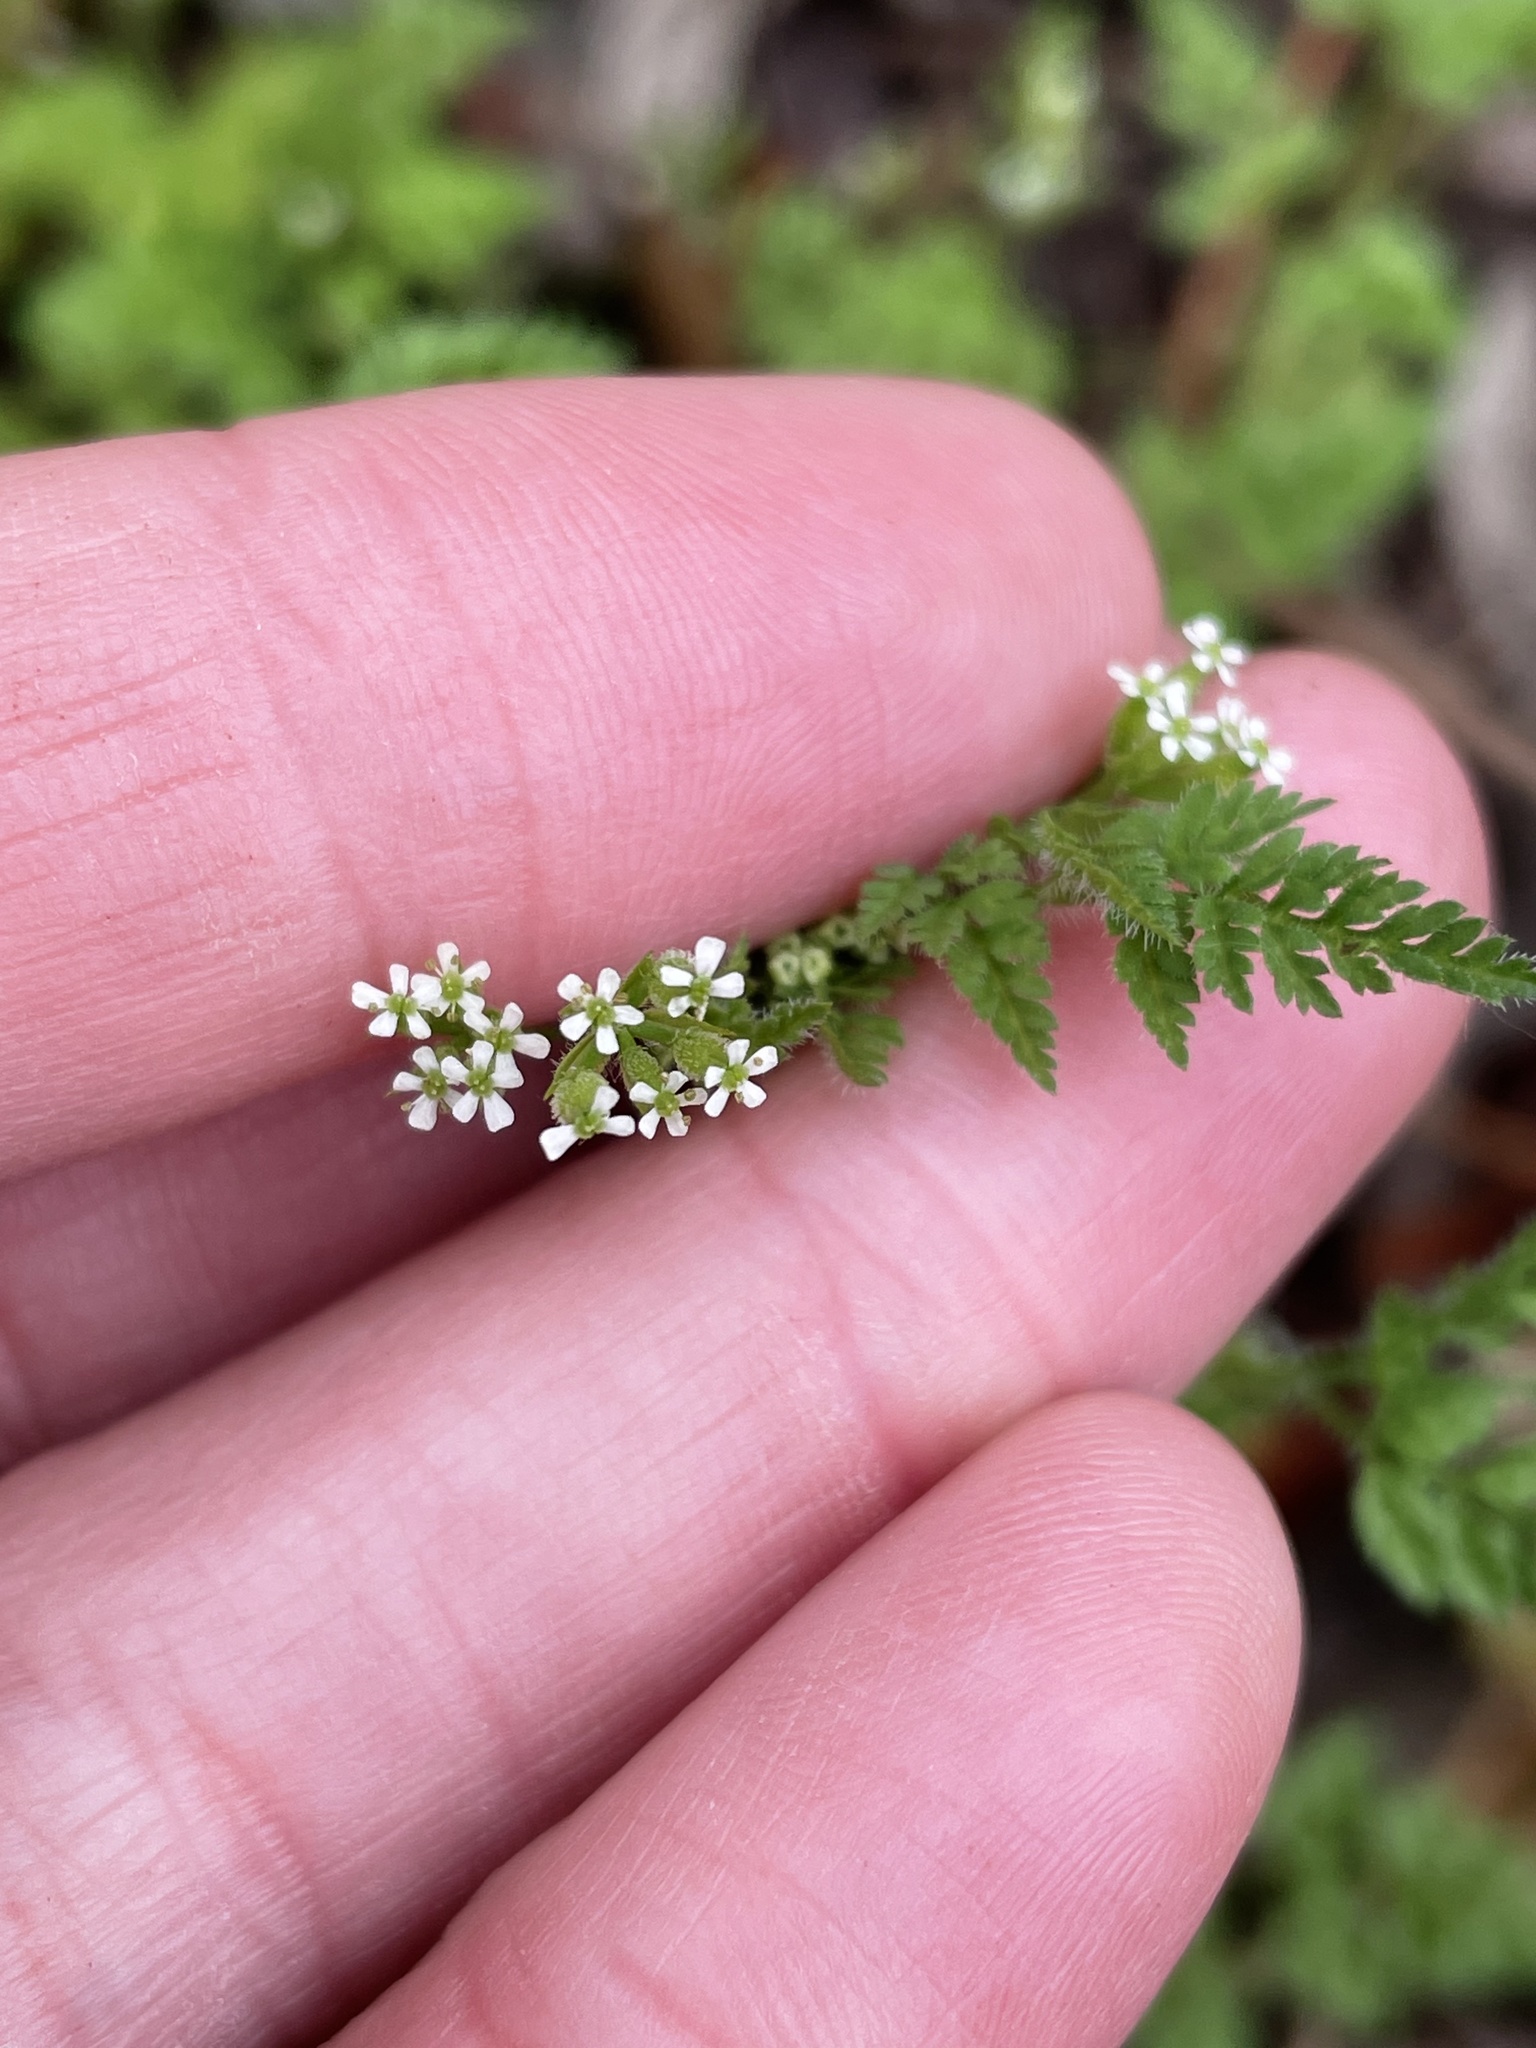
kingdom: Plantae
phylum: Tracheophyta
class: Magnoliopsida
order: Apiales
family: Apiaceae
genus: Anthriscus
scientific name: Anthriscus caucalis
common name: Bur chervil
